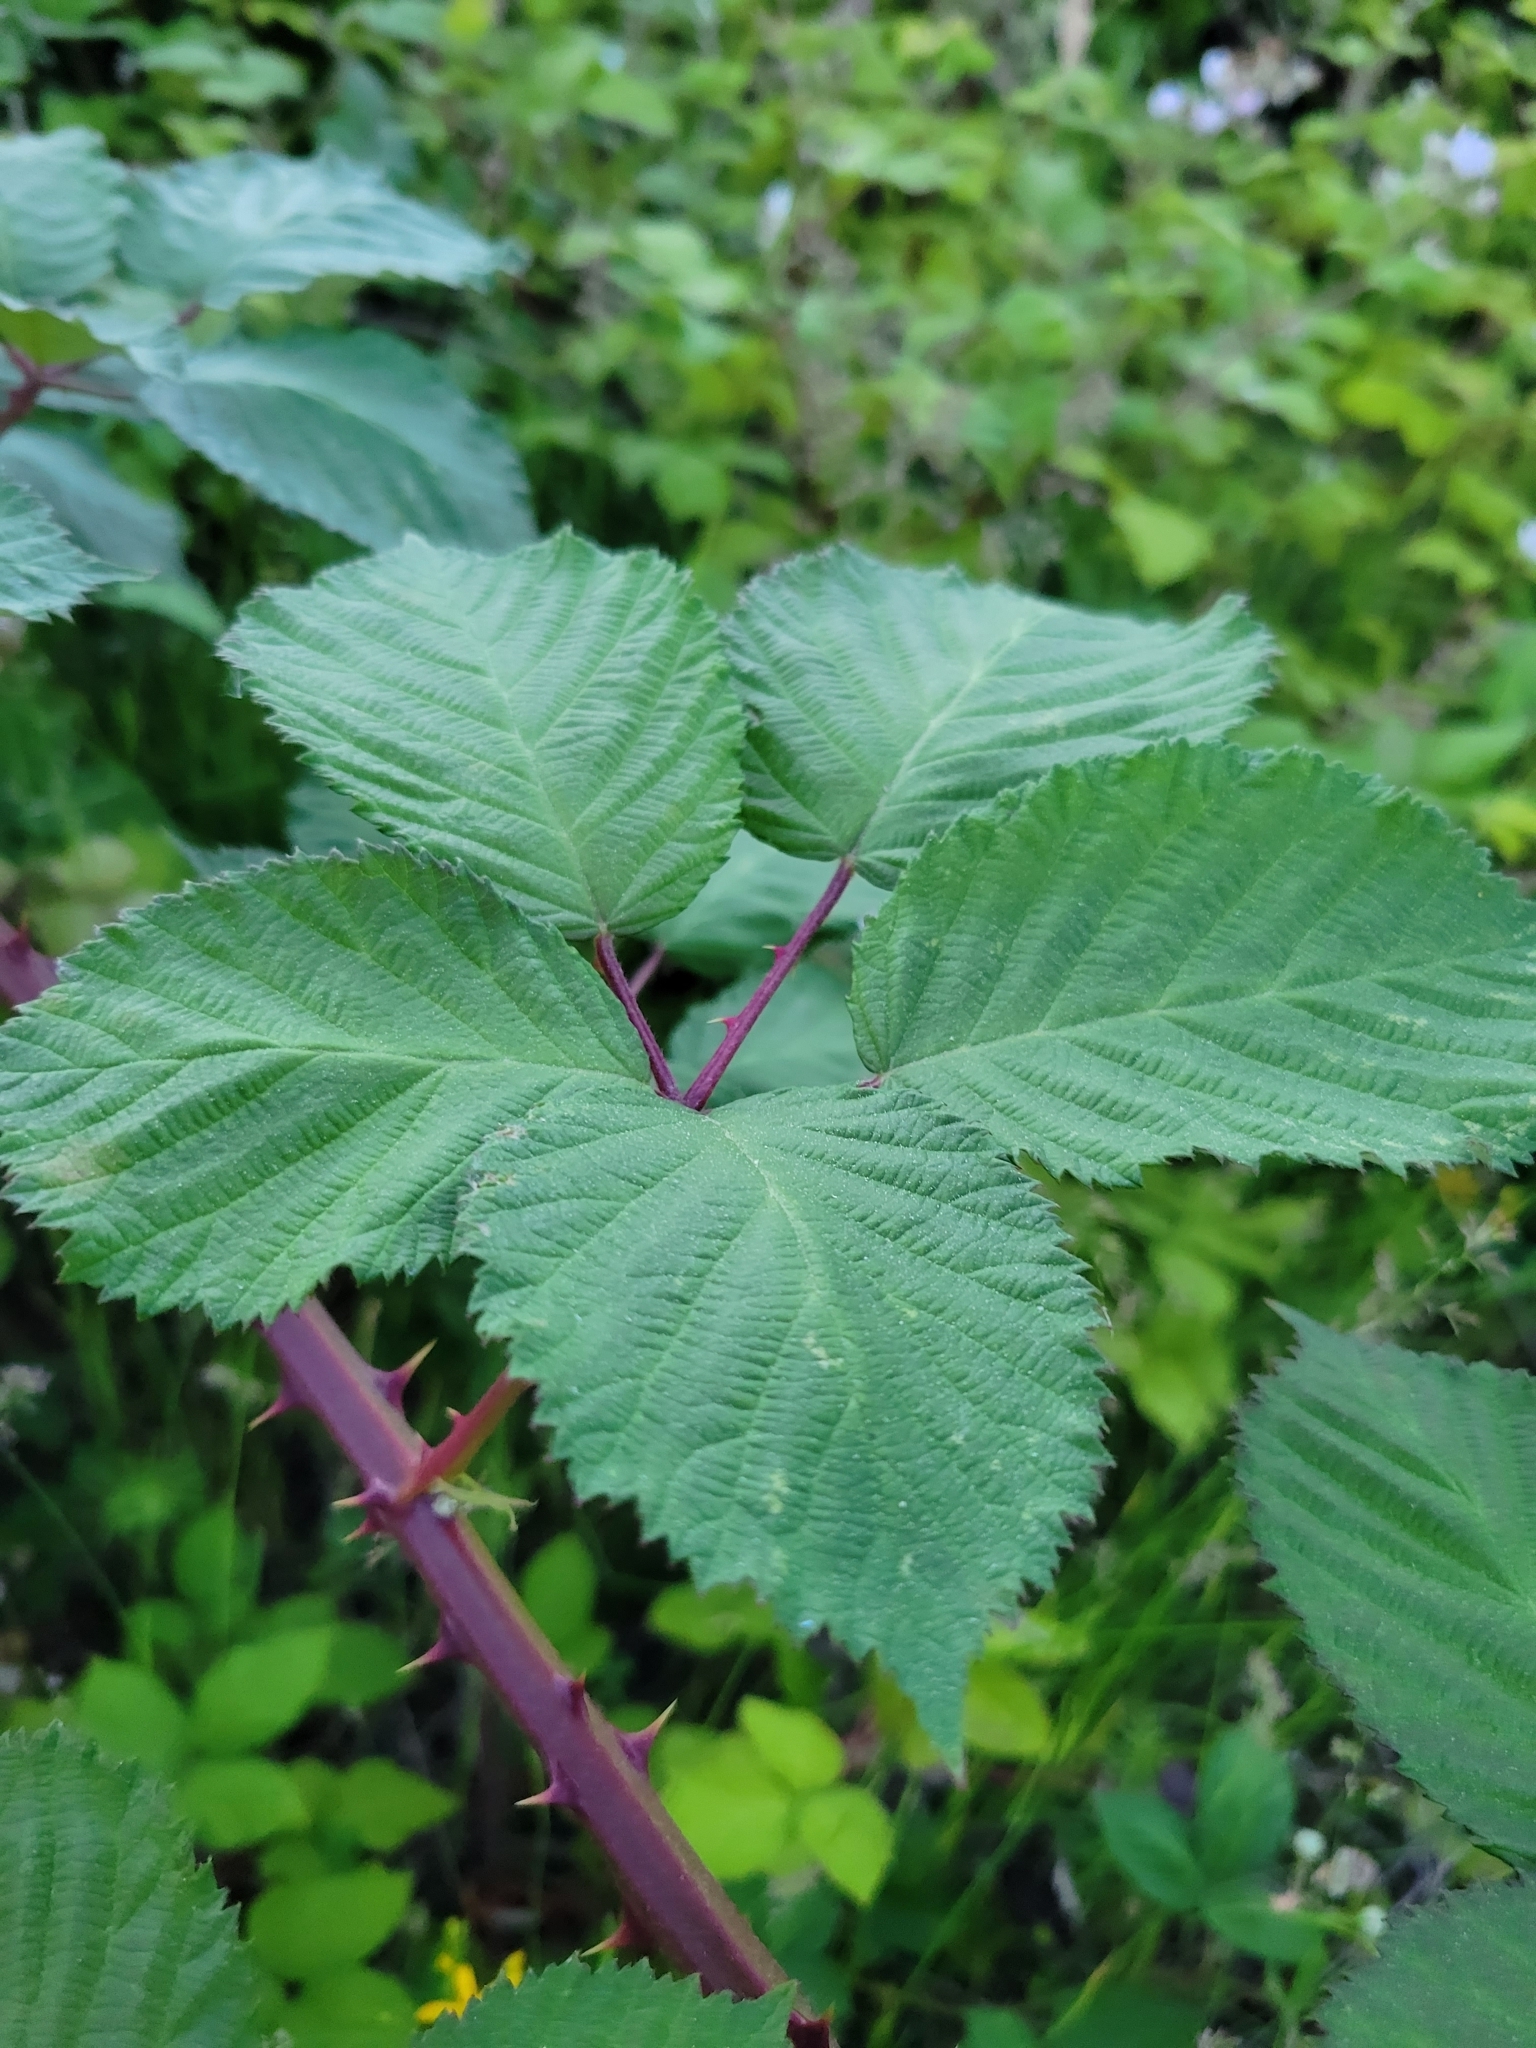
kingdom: Plantae
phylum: Tracheophyta
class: Magnoliopsida
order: Rosales
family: Rosaceae
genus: Rubus
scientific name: Rubus armeniacus
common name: Himalayan blackberry
